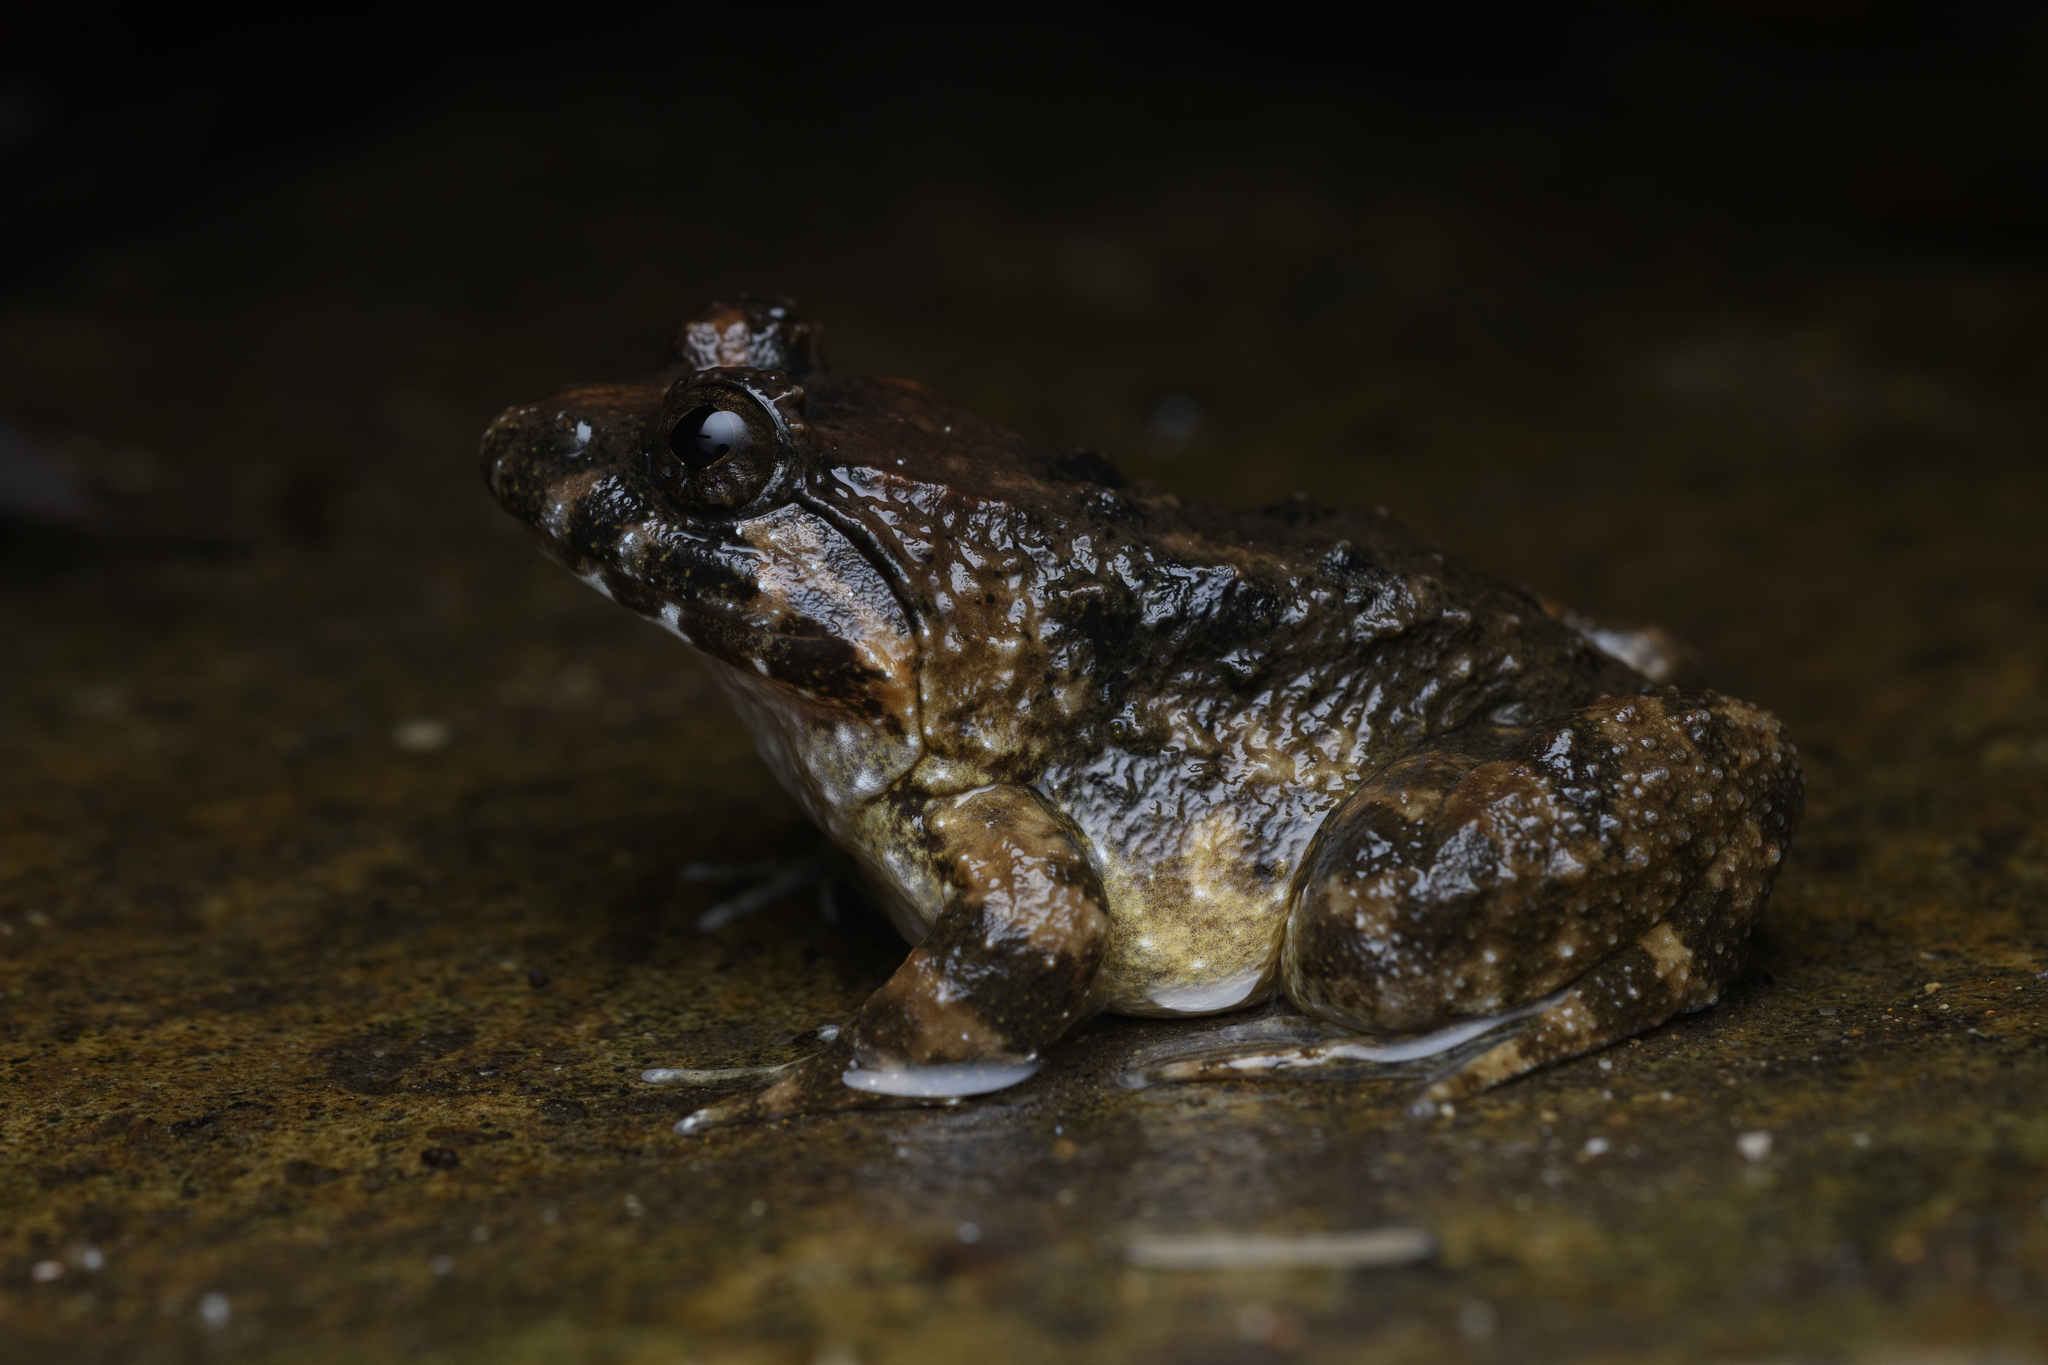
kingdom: Animalia
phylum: Chordata
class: Amphibia
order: Anura
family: Dicroglossidae
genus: Limnonectes
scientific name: Limnonectes fujianensis
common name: Fujian large-headed frog
